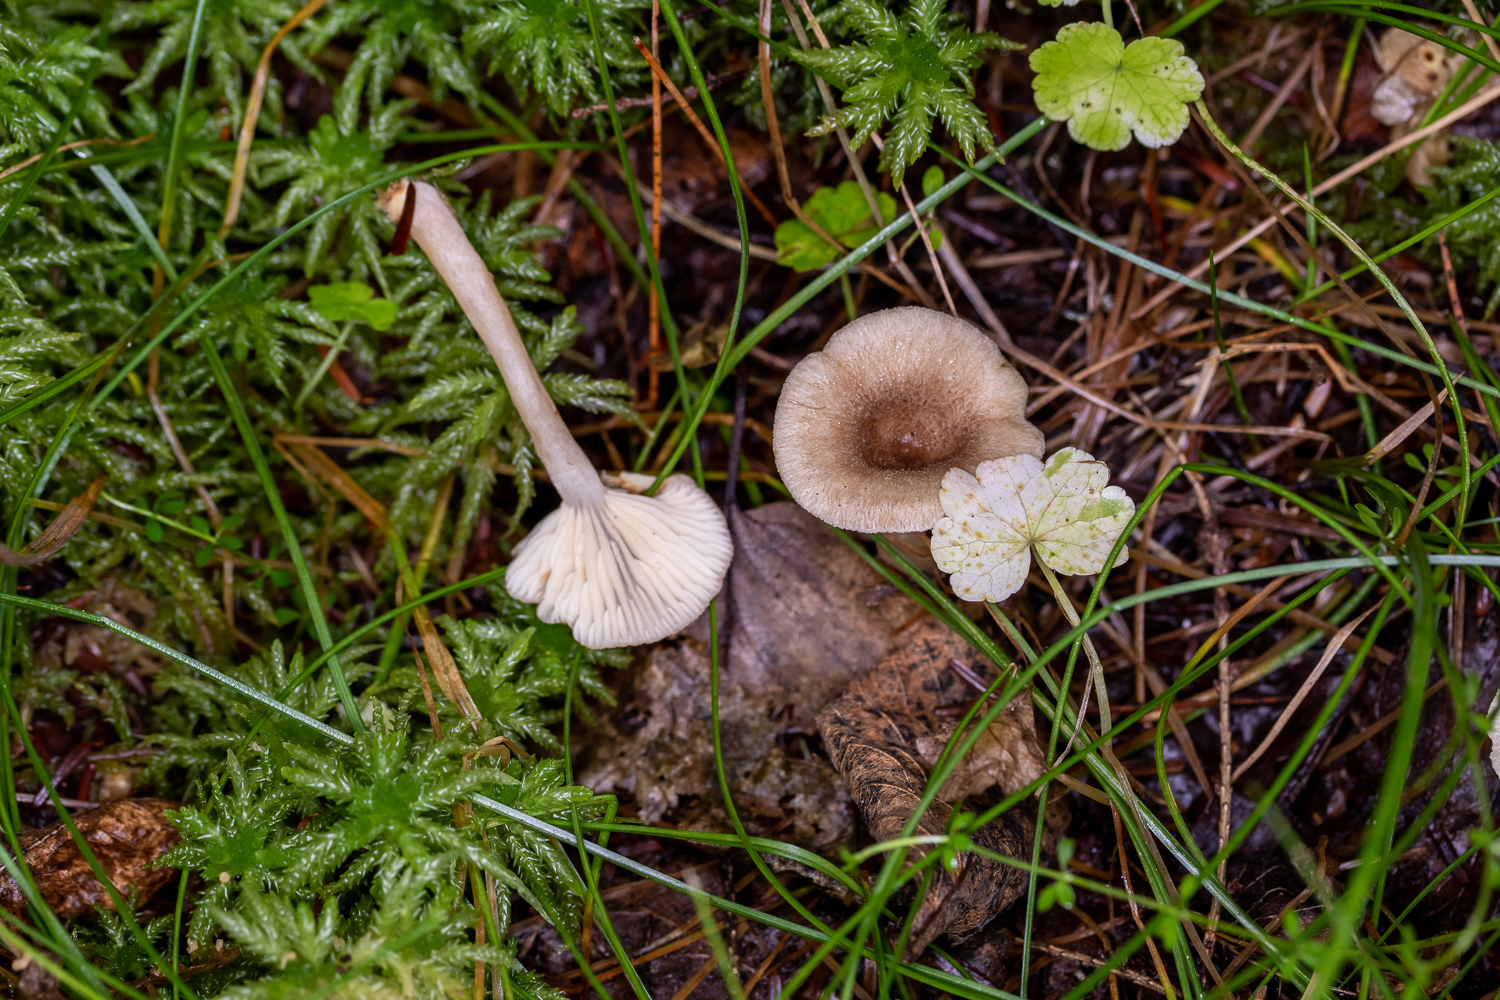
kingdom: Fungi
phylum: Basidiomycota
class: Agaricomycetes
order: Russulales
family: Russulaceae
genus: Lactarius
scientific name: Lactarius griseus
